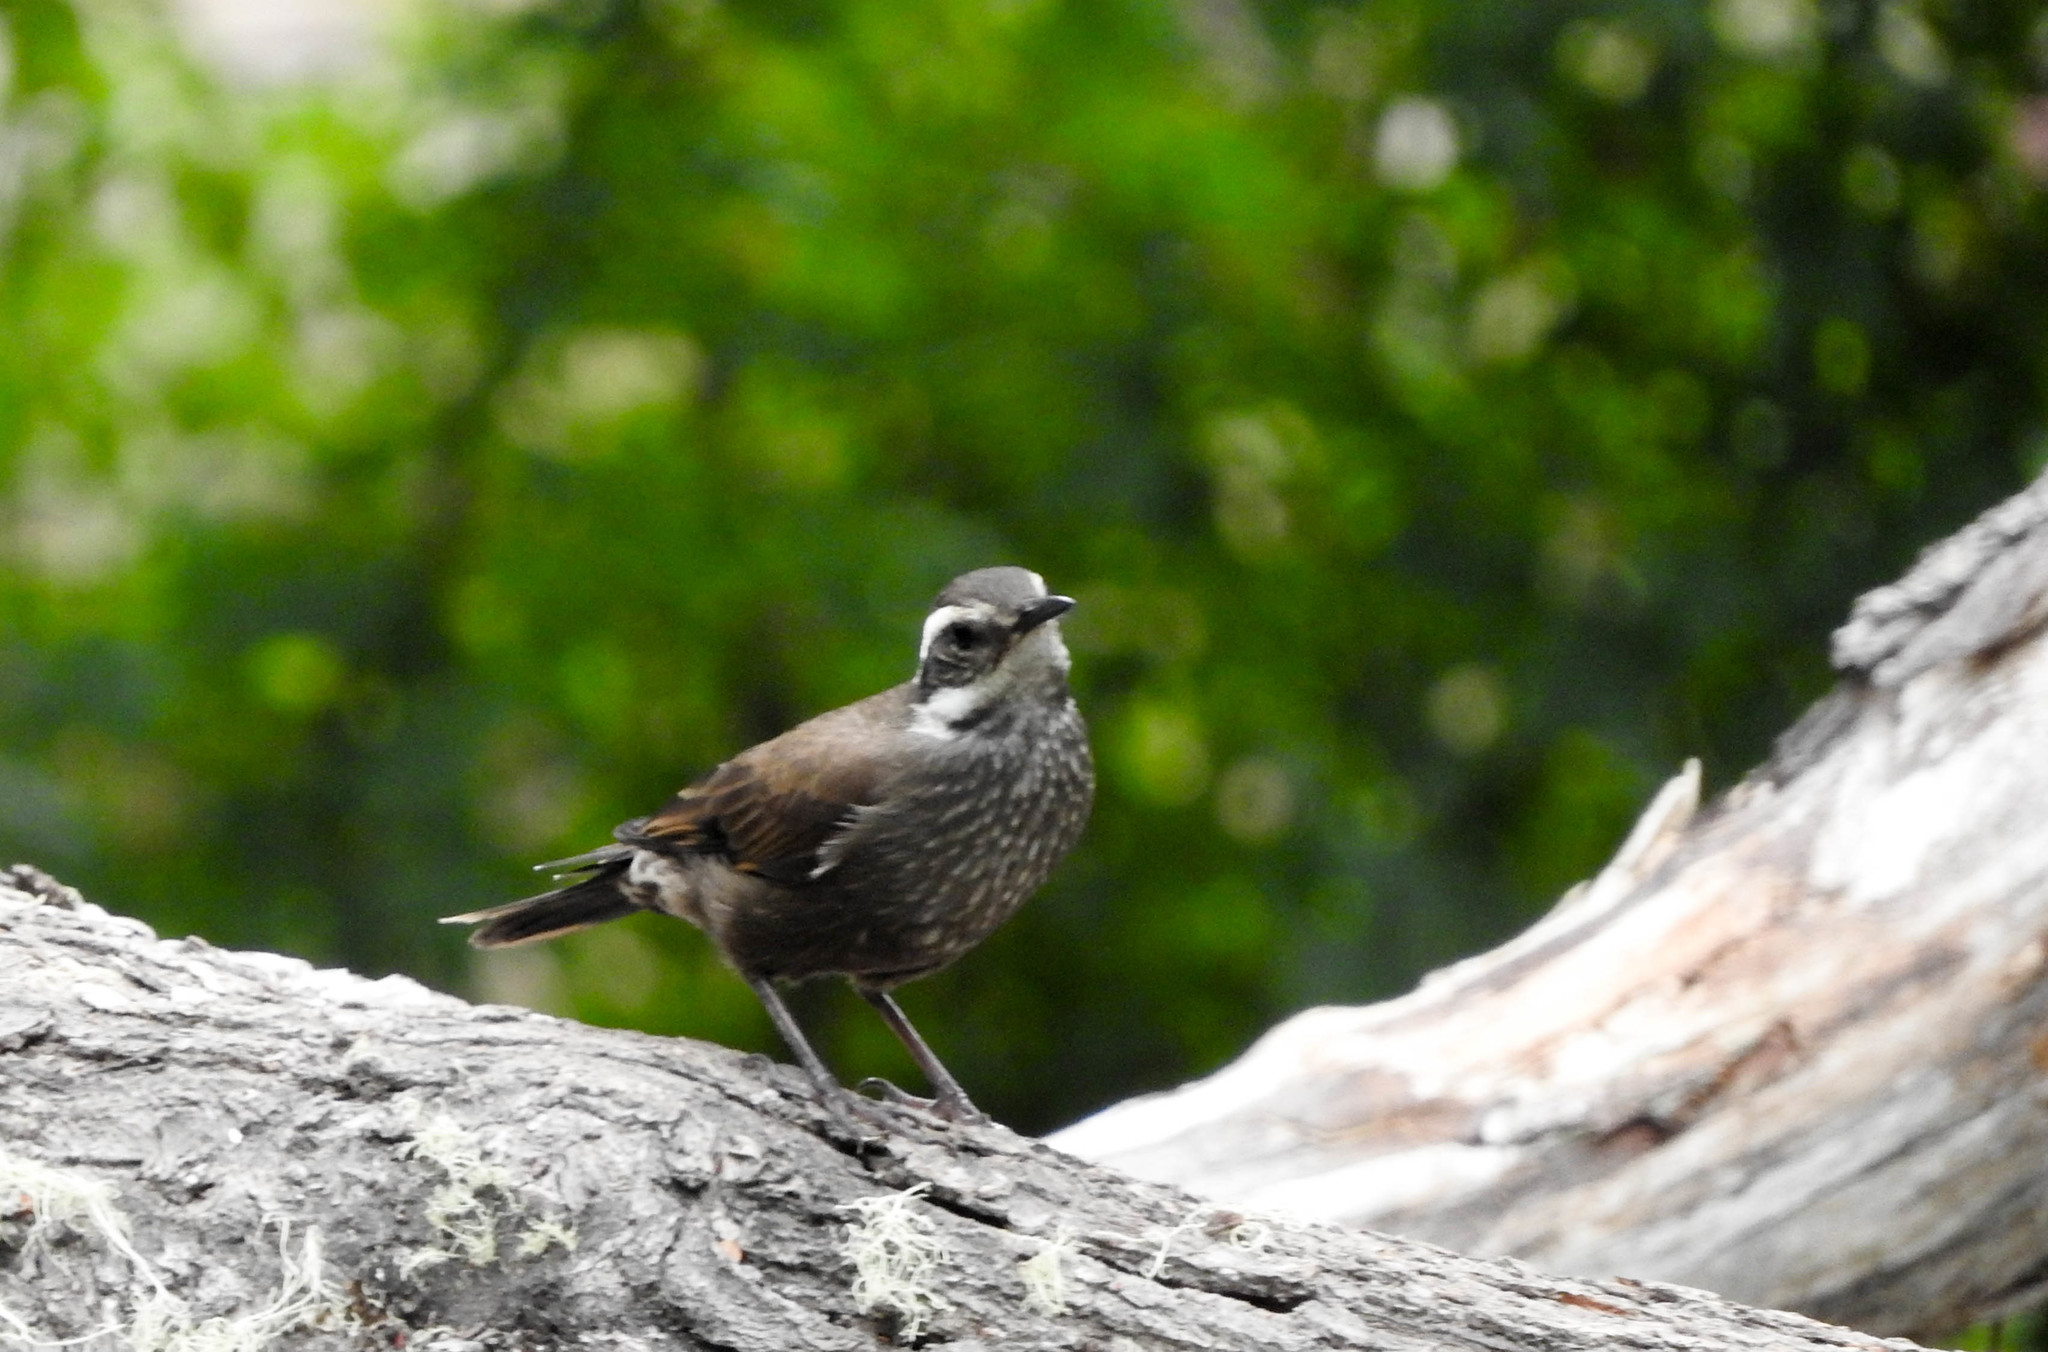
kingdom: Animalia
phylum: Chordata
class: Aves
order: Passeriformes
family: Furnariidae
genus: Cinclodes
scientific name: Cinclodes patagonicus
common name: Dark-bellied cinclodes
